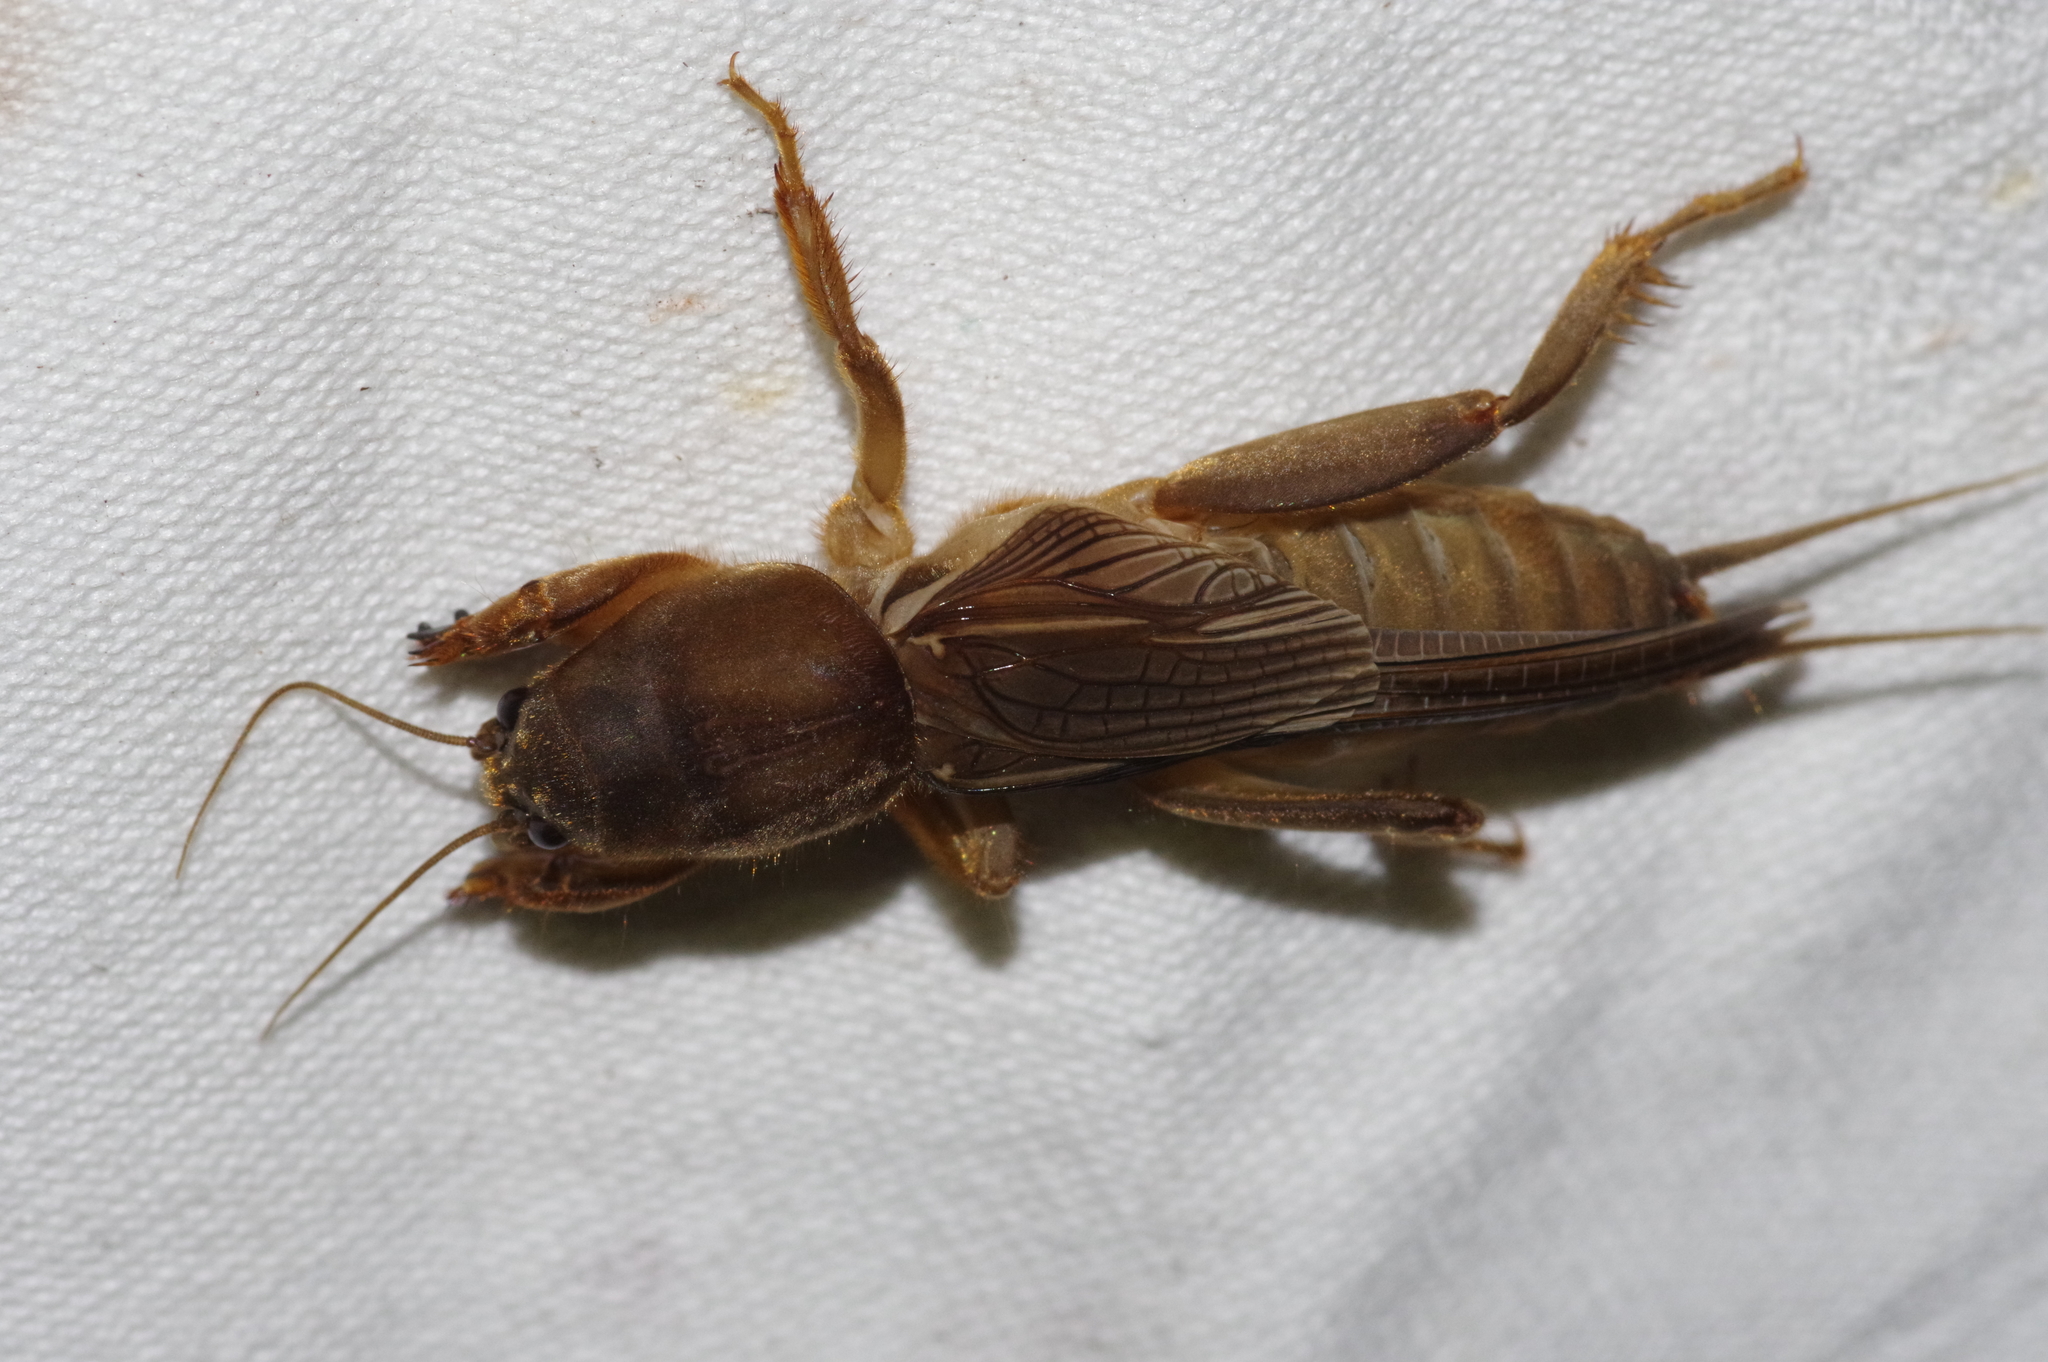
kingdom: Animalia
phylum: Arthropoda
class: Insecta
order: Orthoptera
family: Gryllotalpidae
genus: Gryllotalpa
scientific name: Gryllotalpa orientalis
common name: Grasshopper
